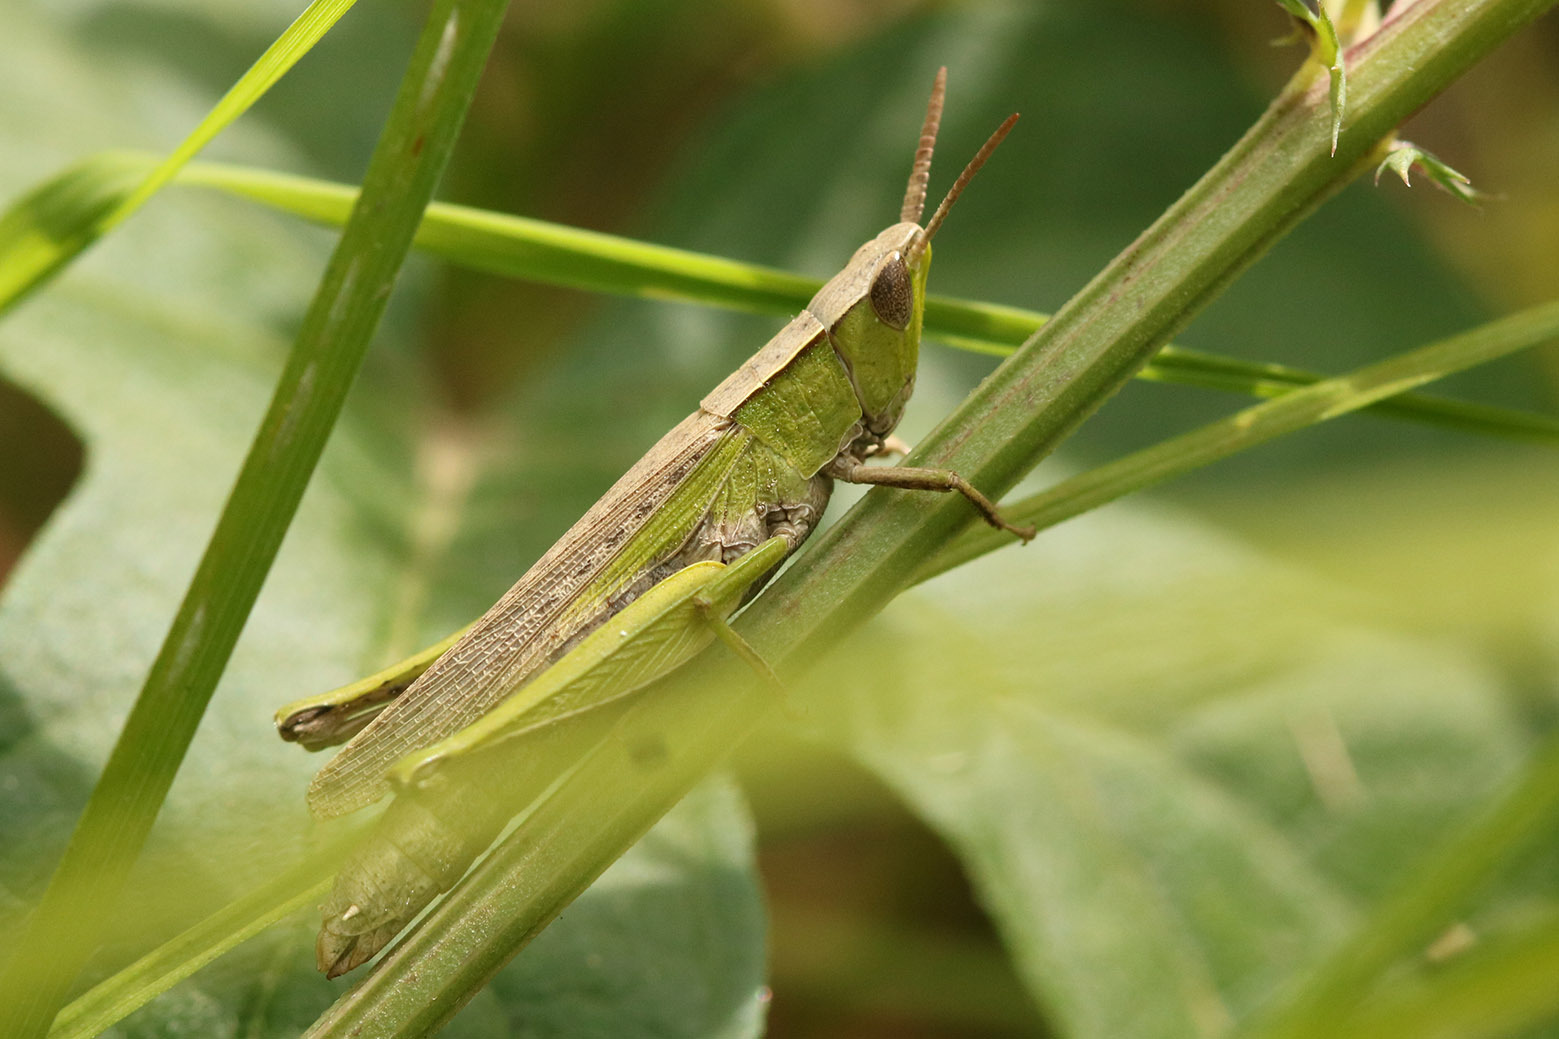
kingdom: Animalia
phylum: Arthropoda
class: Insecta
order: Orthoptera
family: Acrididae
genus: Laplatacris
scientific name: Laplatacris dispar
